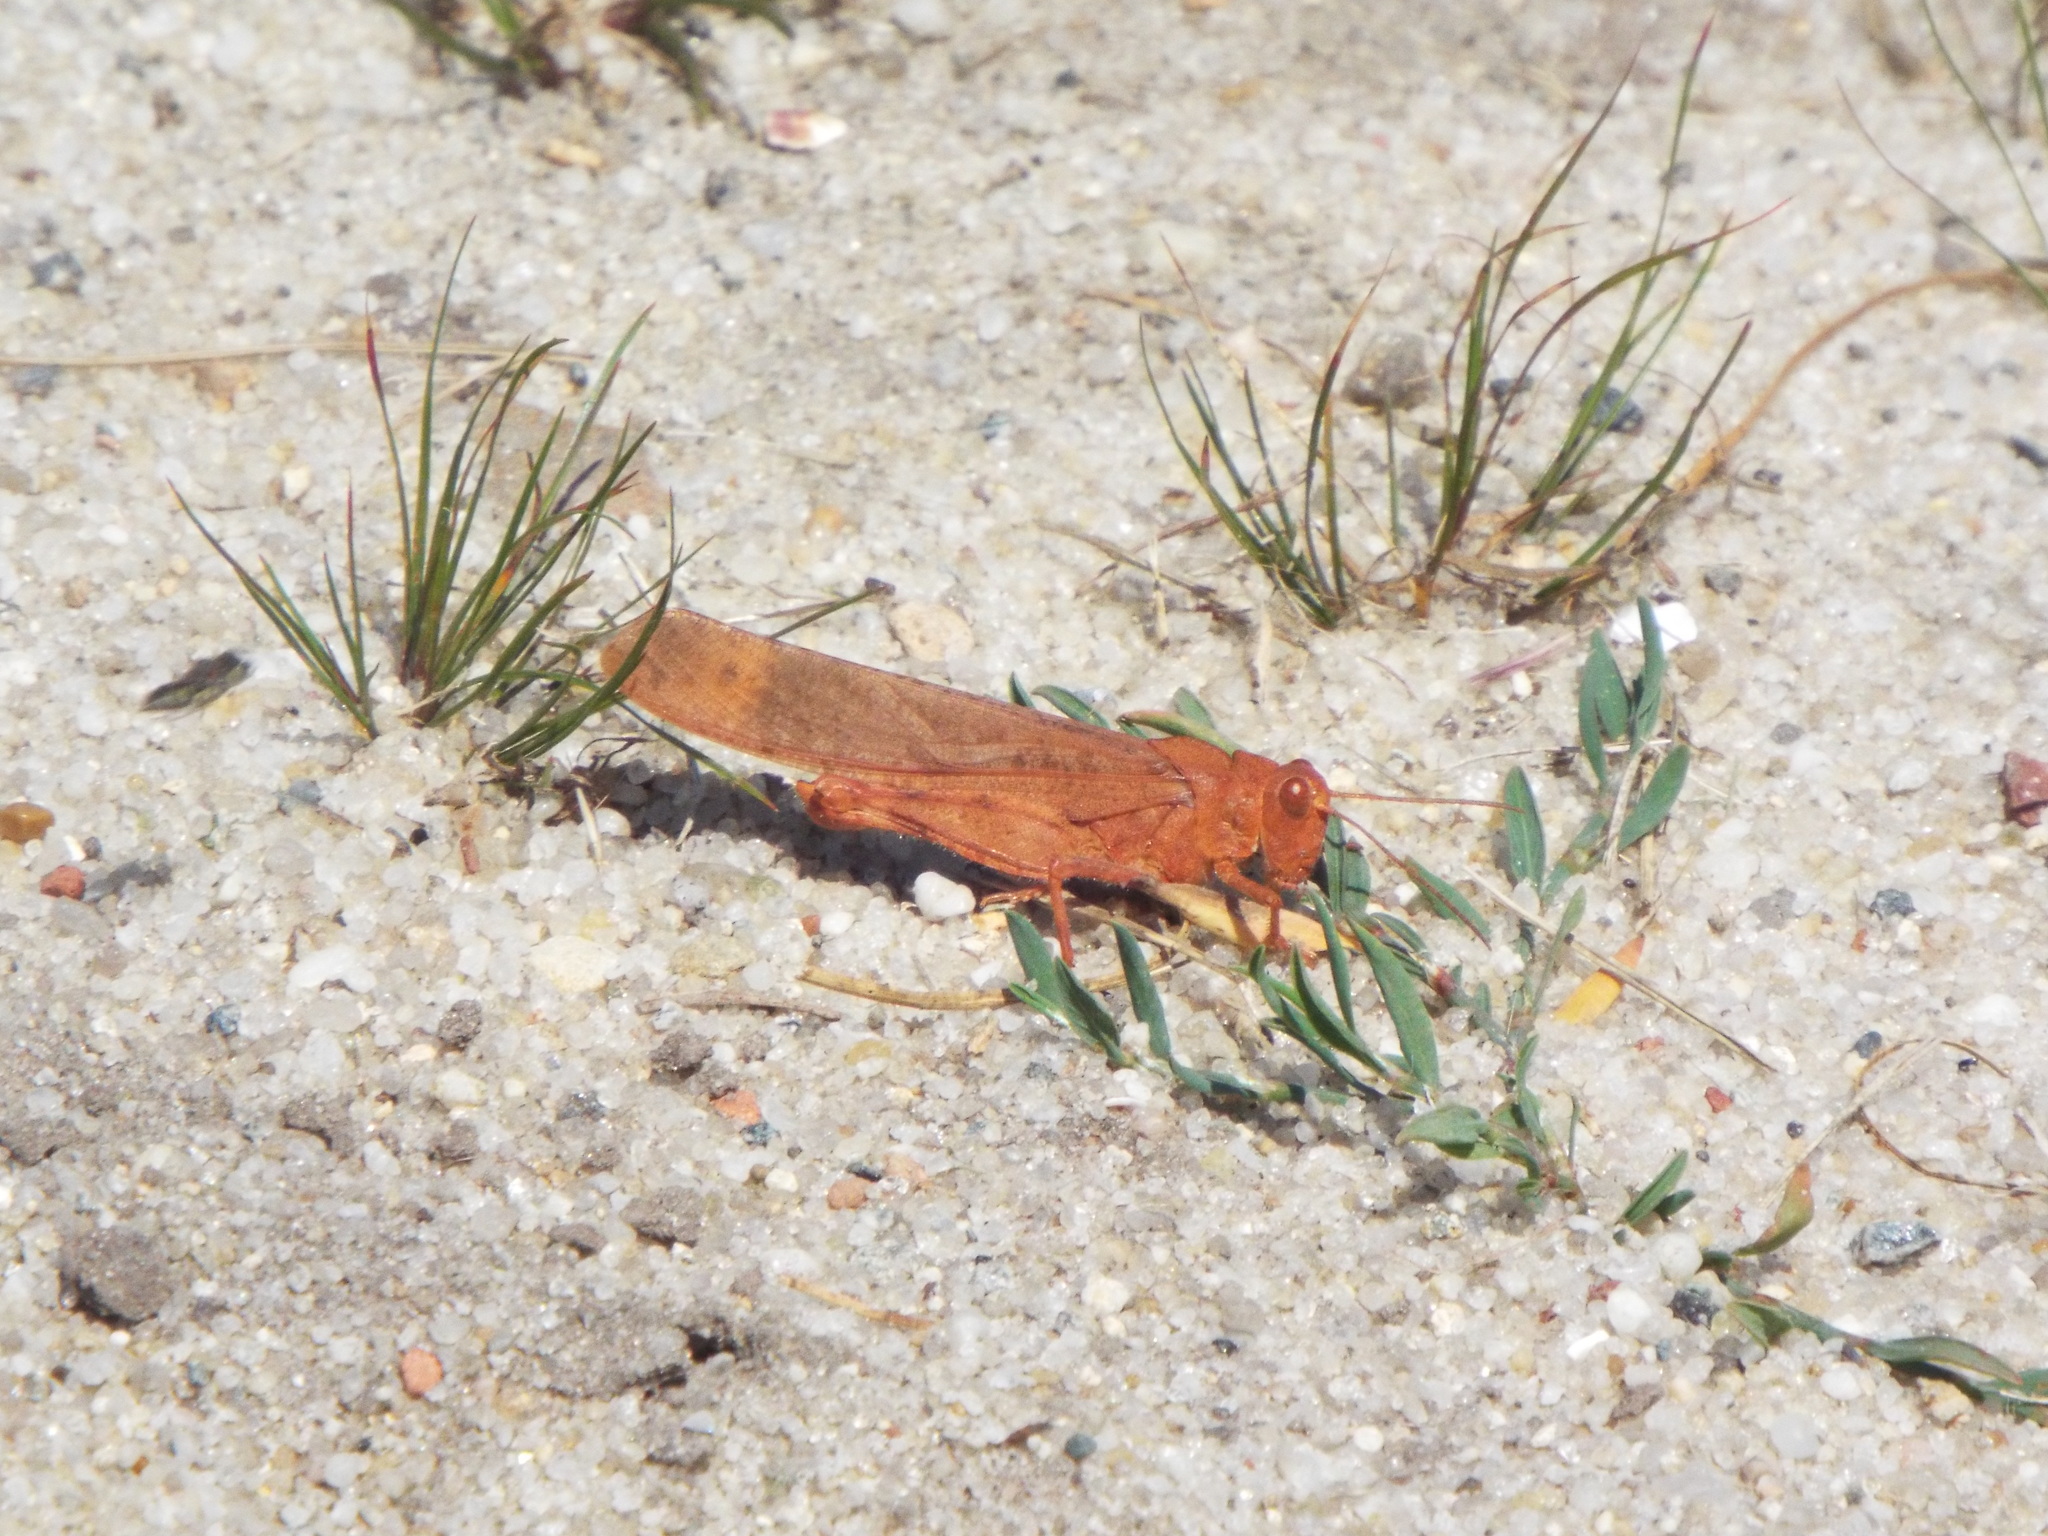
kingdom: Animalia
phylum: Arthropoda
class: Insecta
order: Orthoptera
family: Acrididae
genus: Dissosteira
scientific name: Dissosteira carolina
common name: Carolina grasshopper
